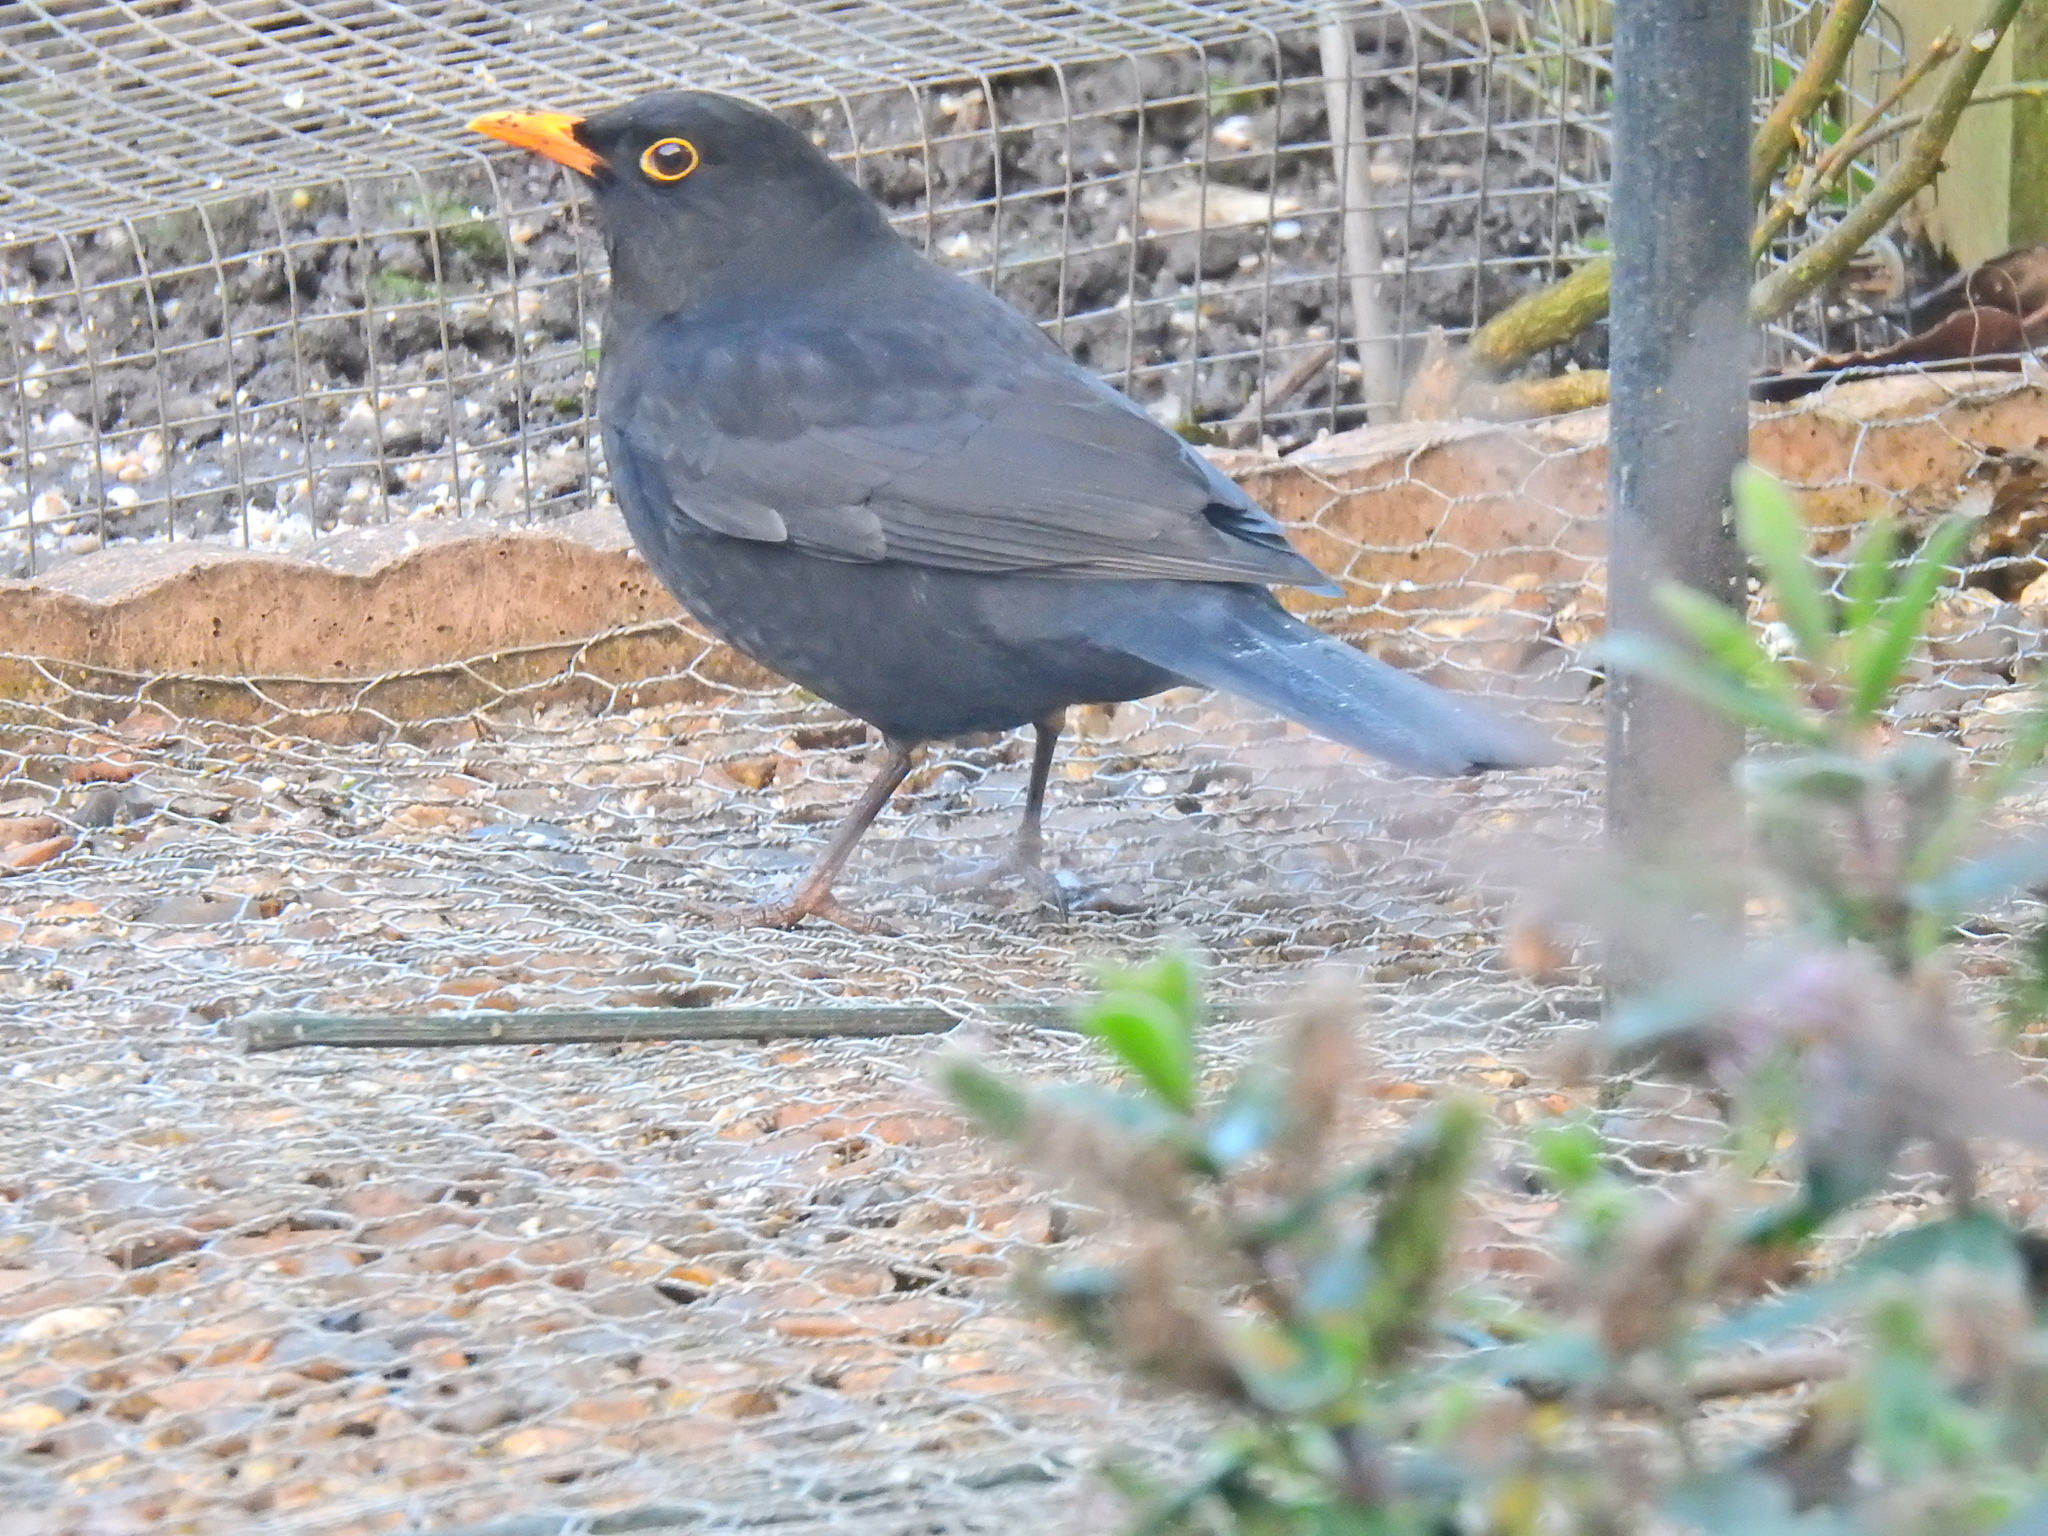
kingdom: Animalia
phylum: Chordata
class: Aves
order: Passeriformes
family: Turdidae
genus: Turdus
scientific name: Turdus merula
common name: Common blackbird
